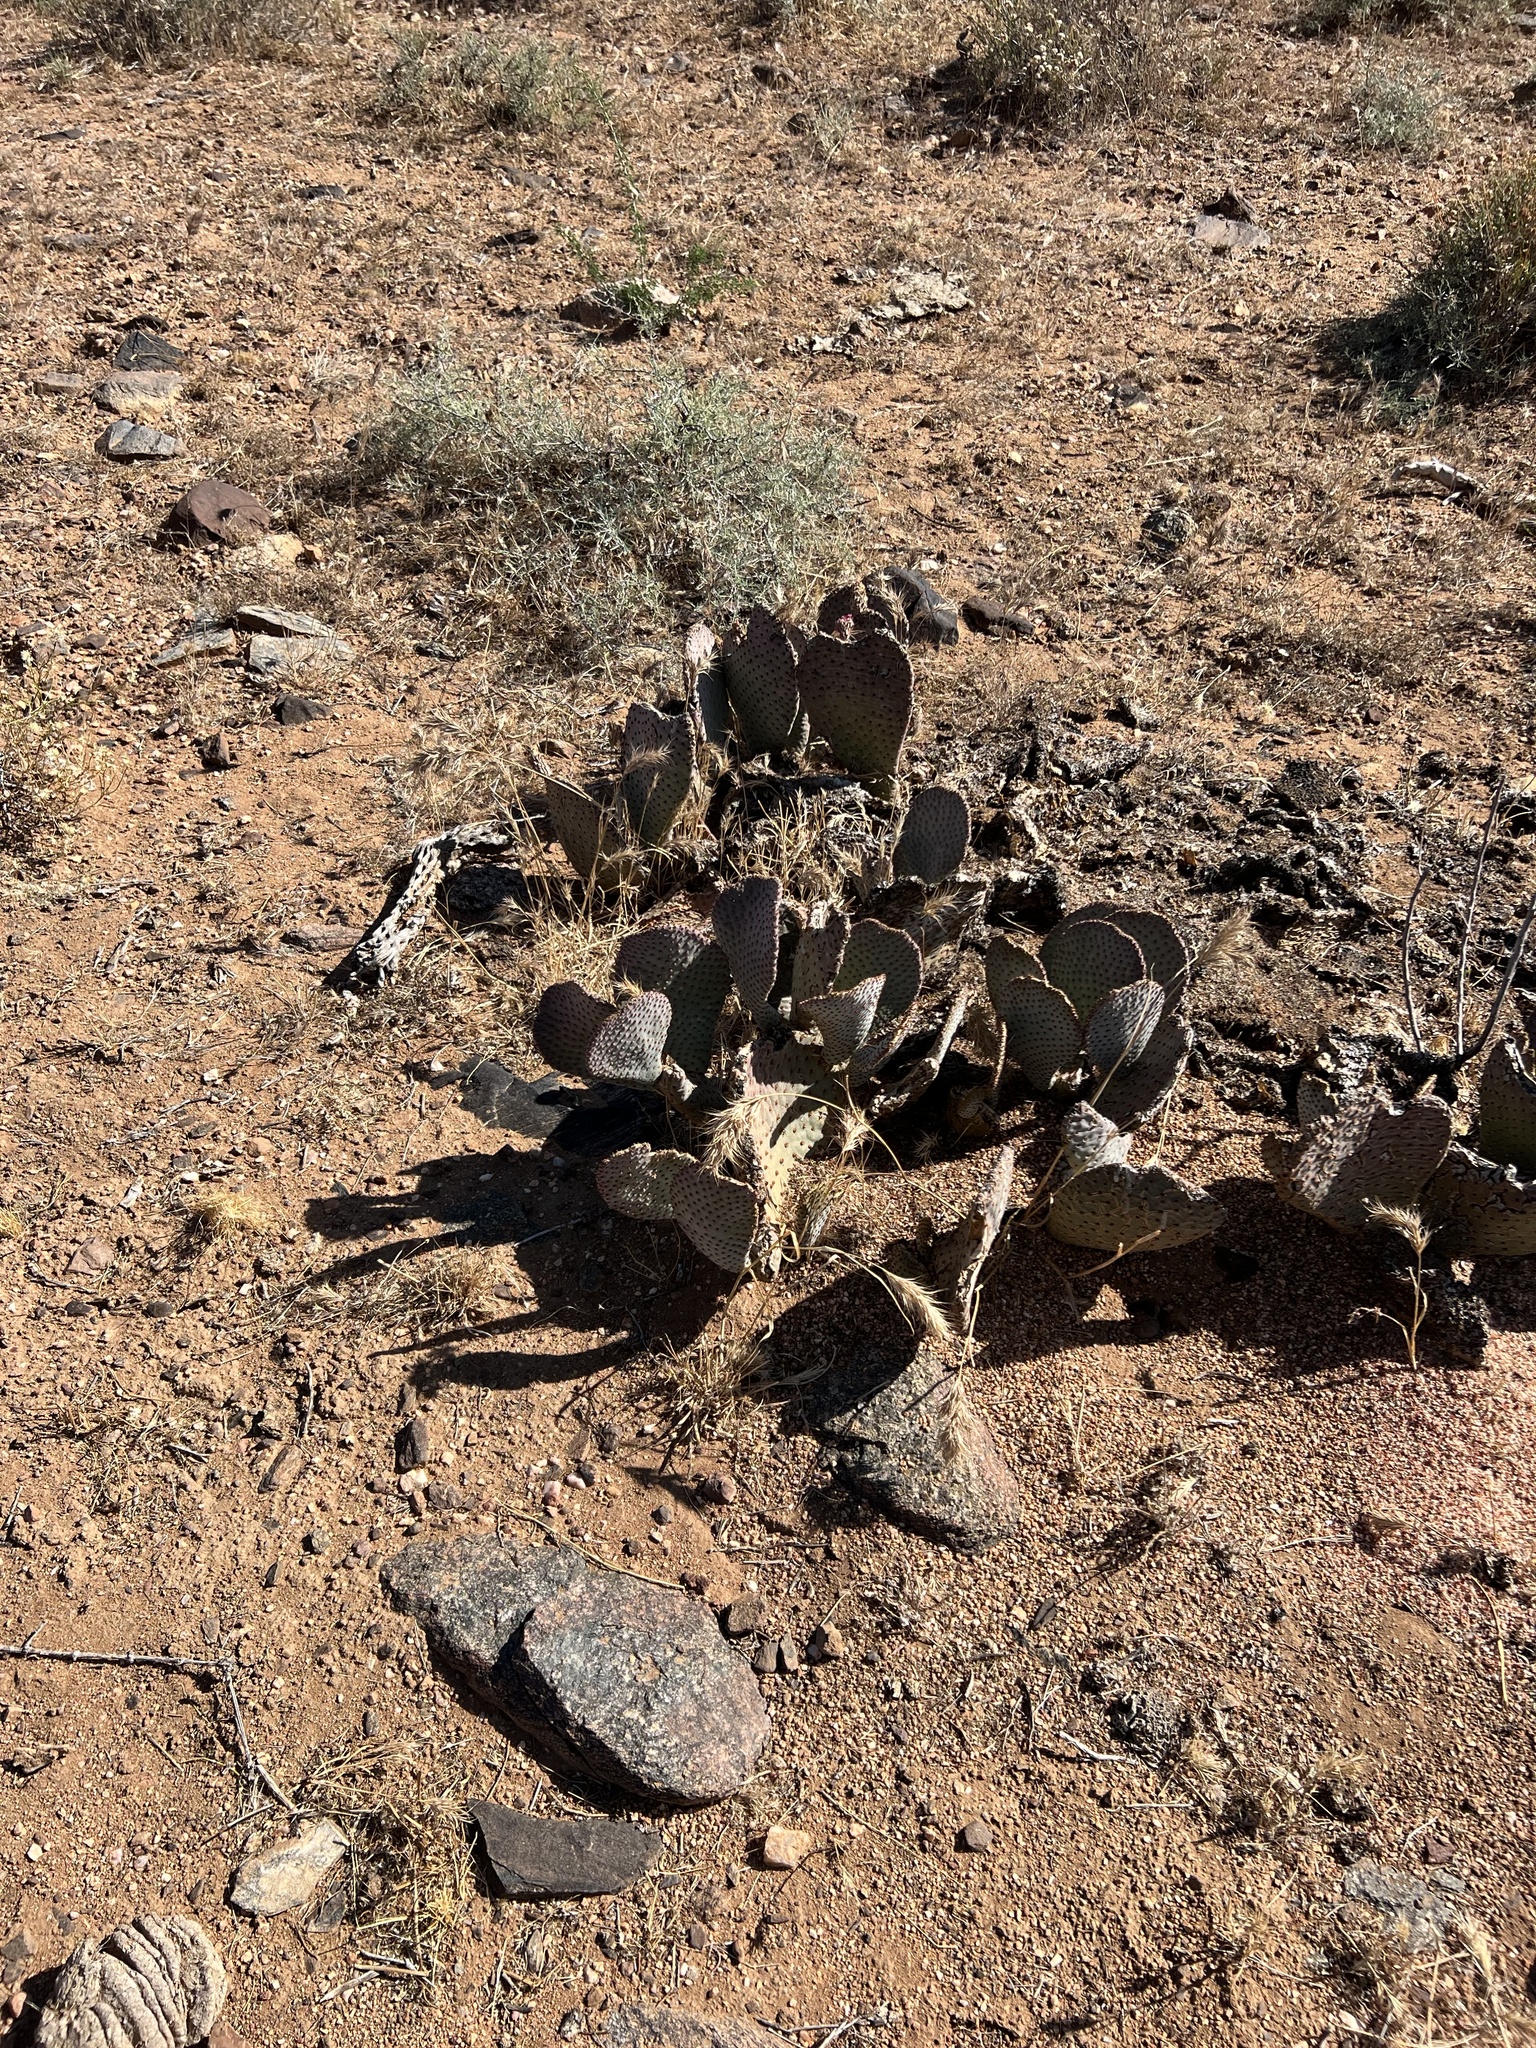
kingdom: Plantae
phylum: Tracheophyta
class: Magnoliopsida
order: Caryophyllales
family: Cactaceae
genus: Opuntia
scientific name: Opuntia basilaris
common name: Beavertail prickly-pear
